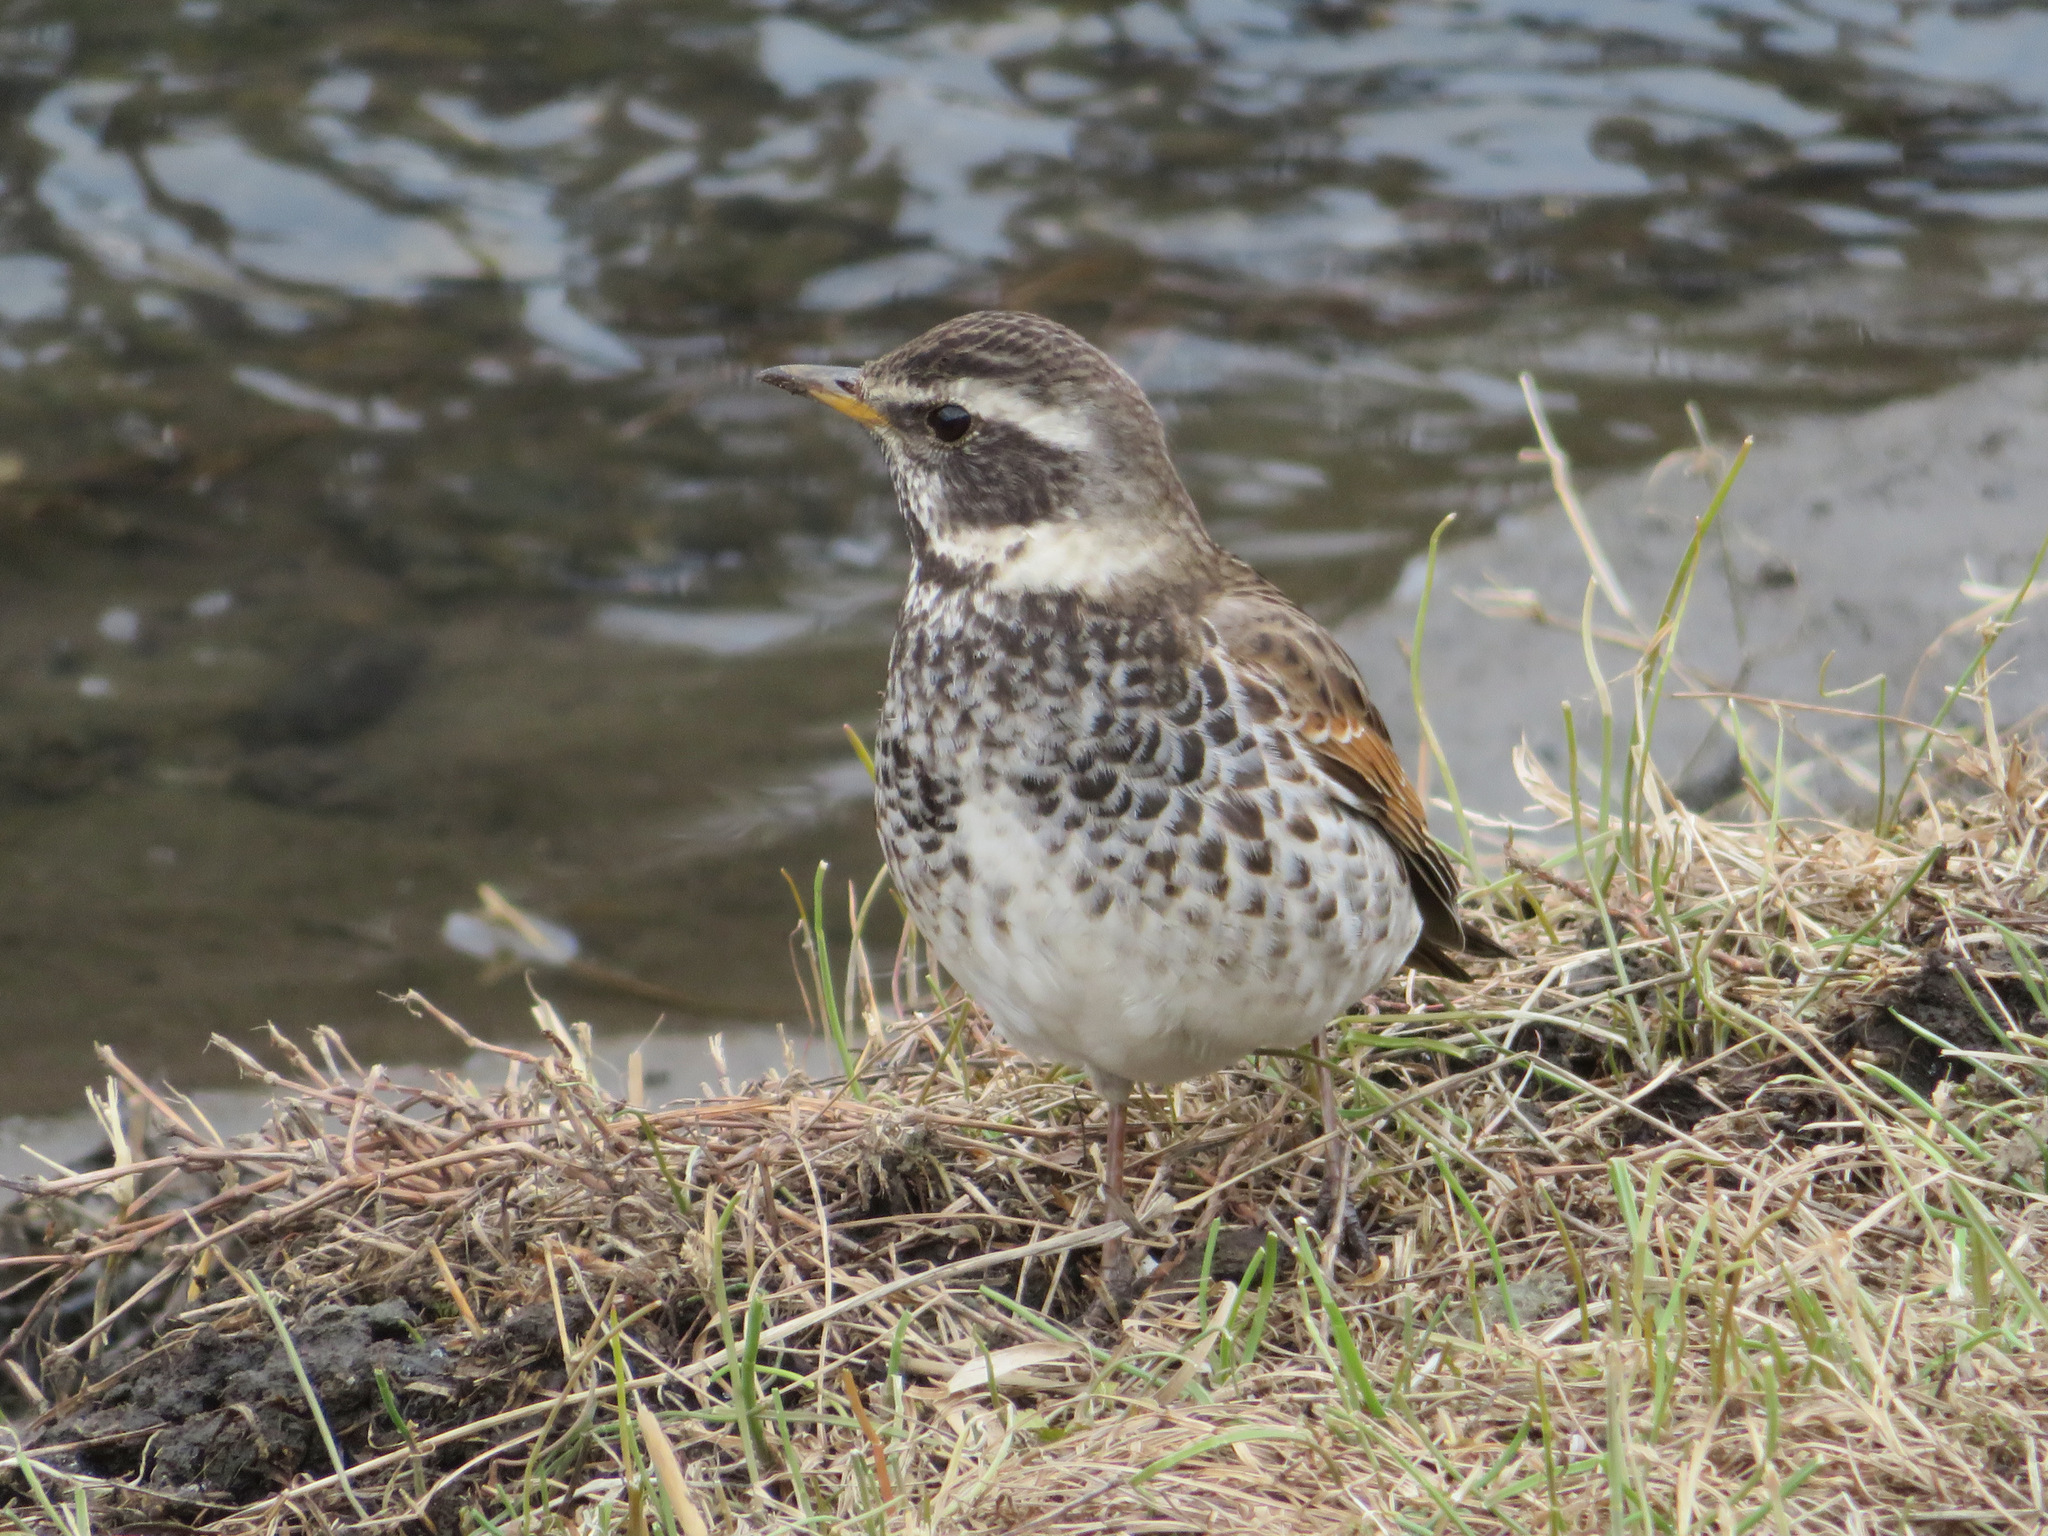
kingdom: Animalia
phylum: Chordata
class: Aves
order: Passeriformes
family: Turdidae
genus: Turdus
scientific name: Turdus eunomus
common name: Dusky thrush
